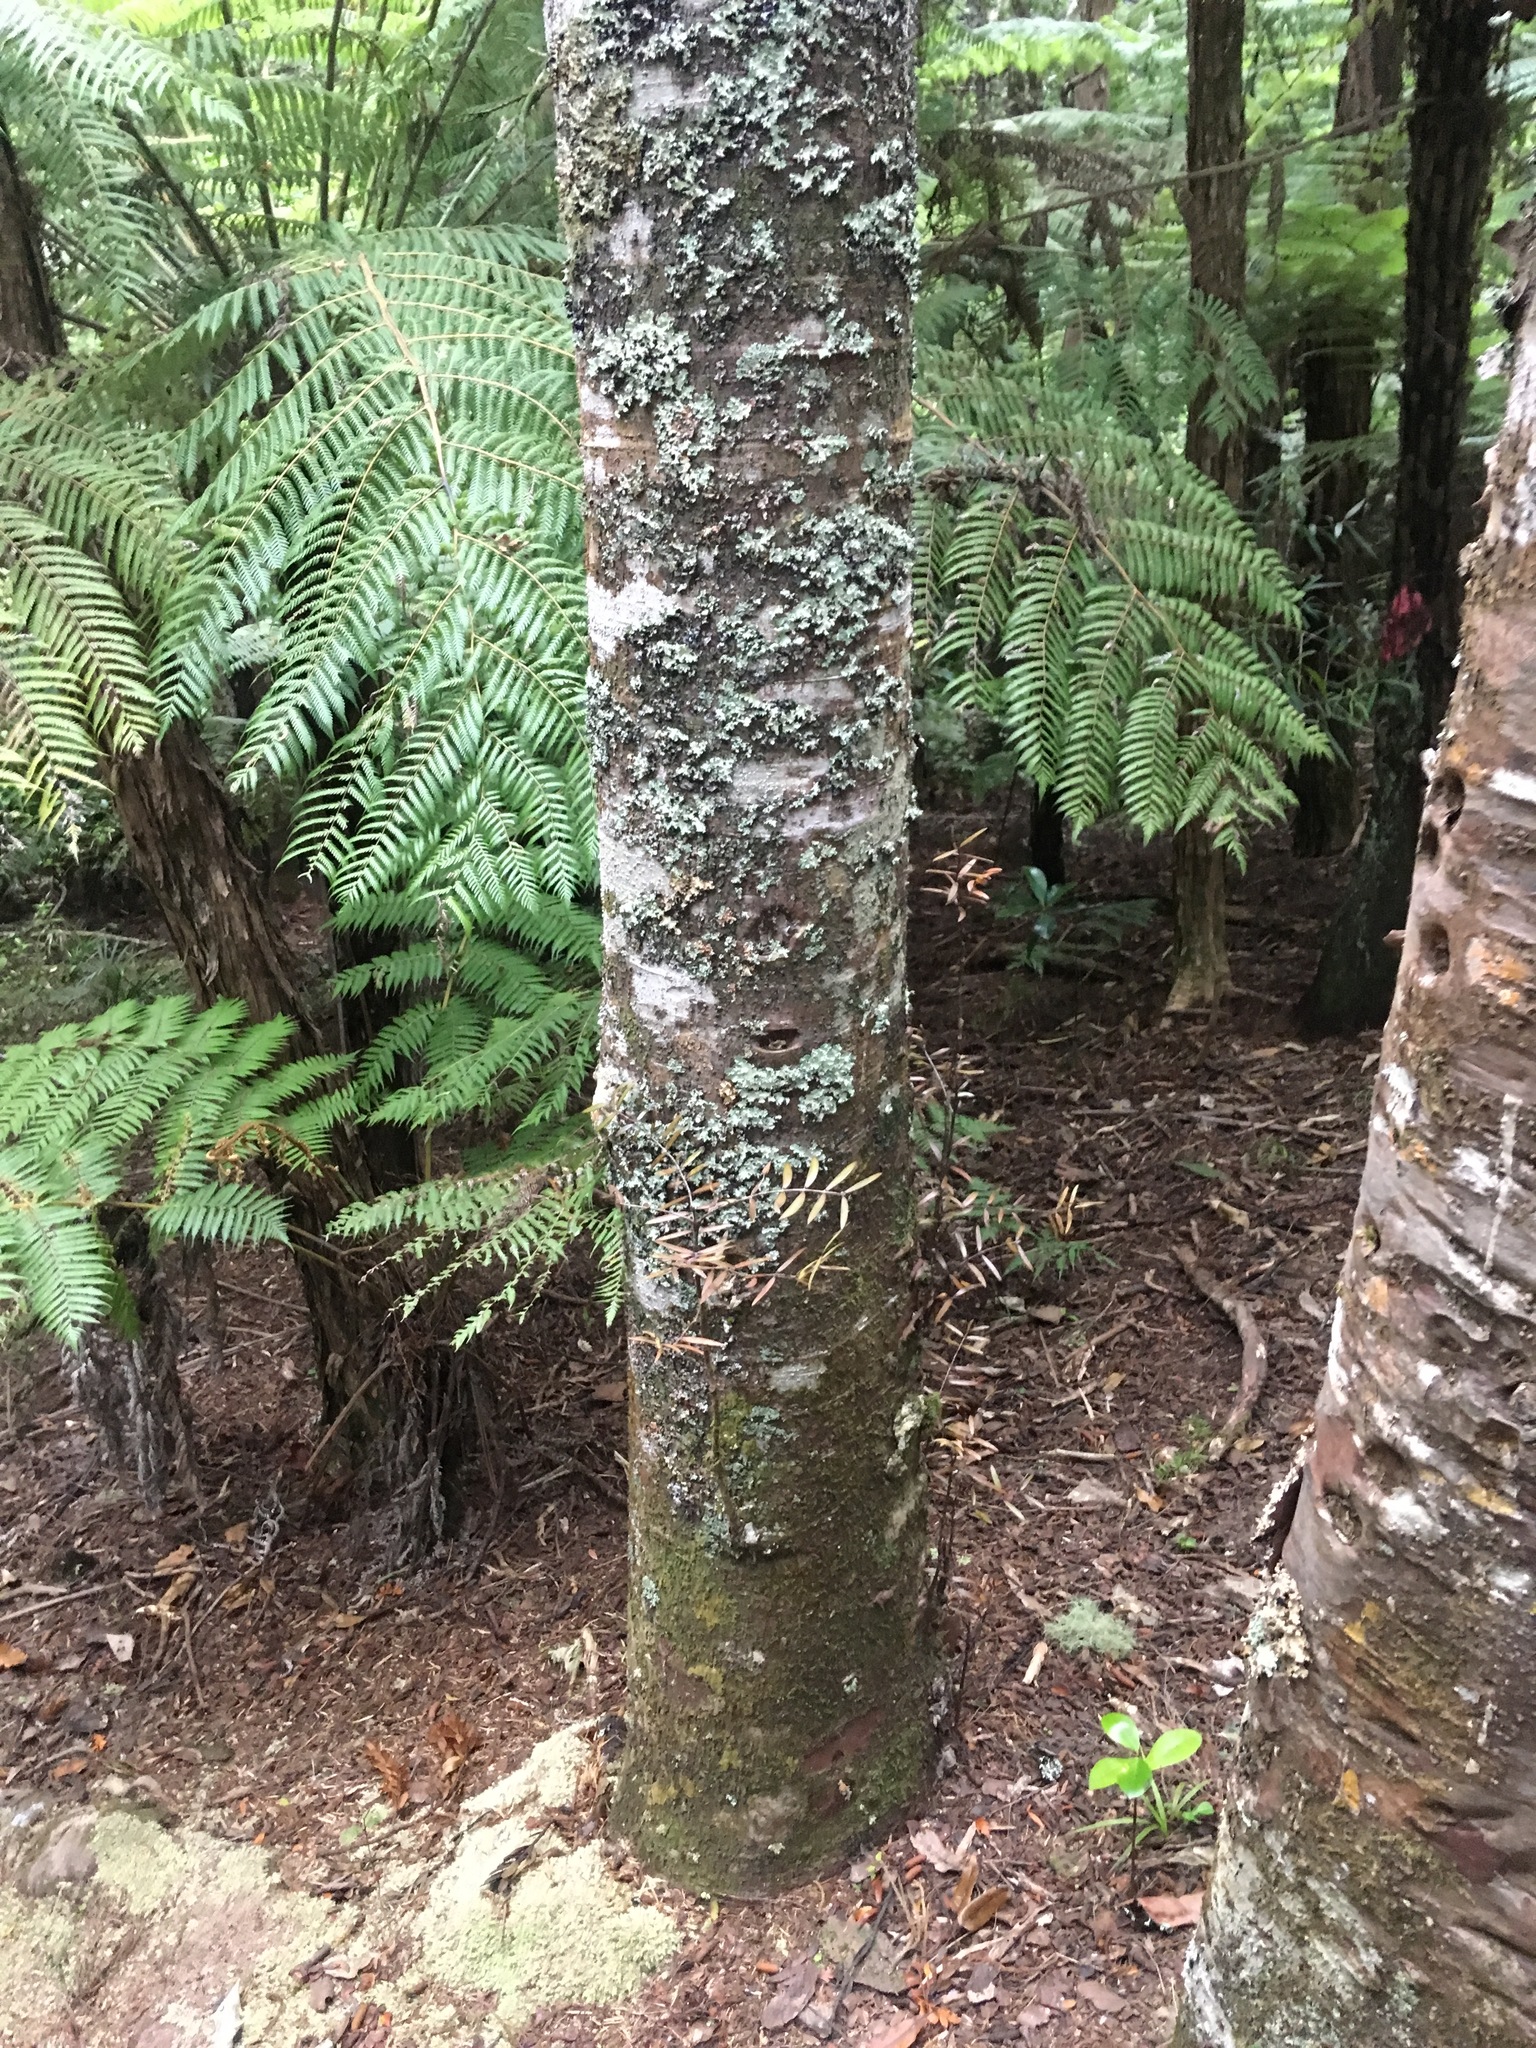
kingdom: Plantae
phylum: Tracheophyta
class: Pinopsida
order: Pinales
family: Araucariaceae
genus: Agathis
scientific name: Agathis australis
